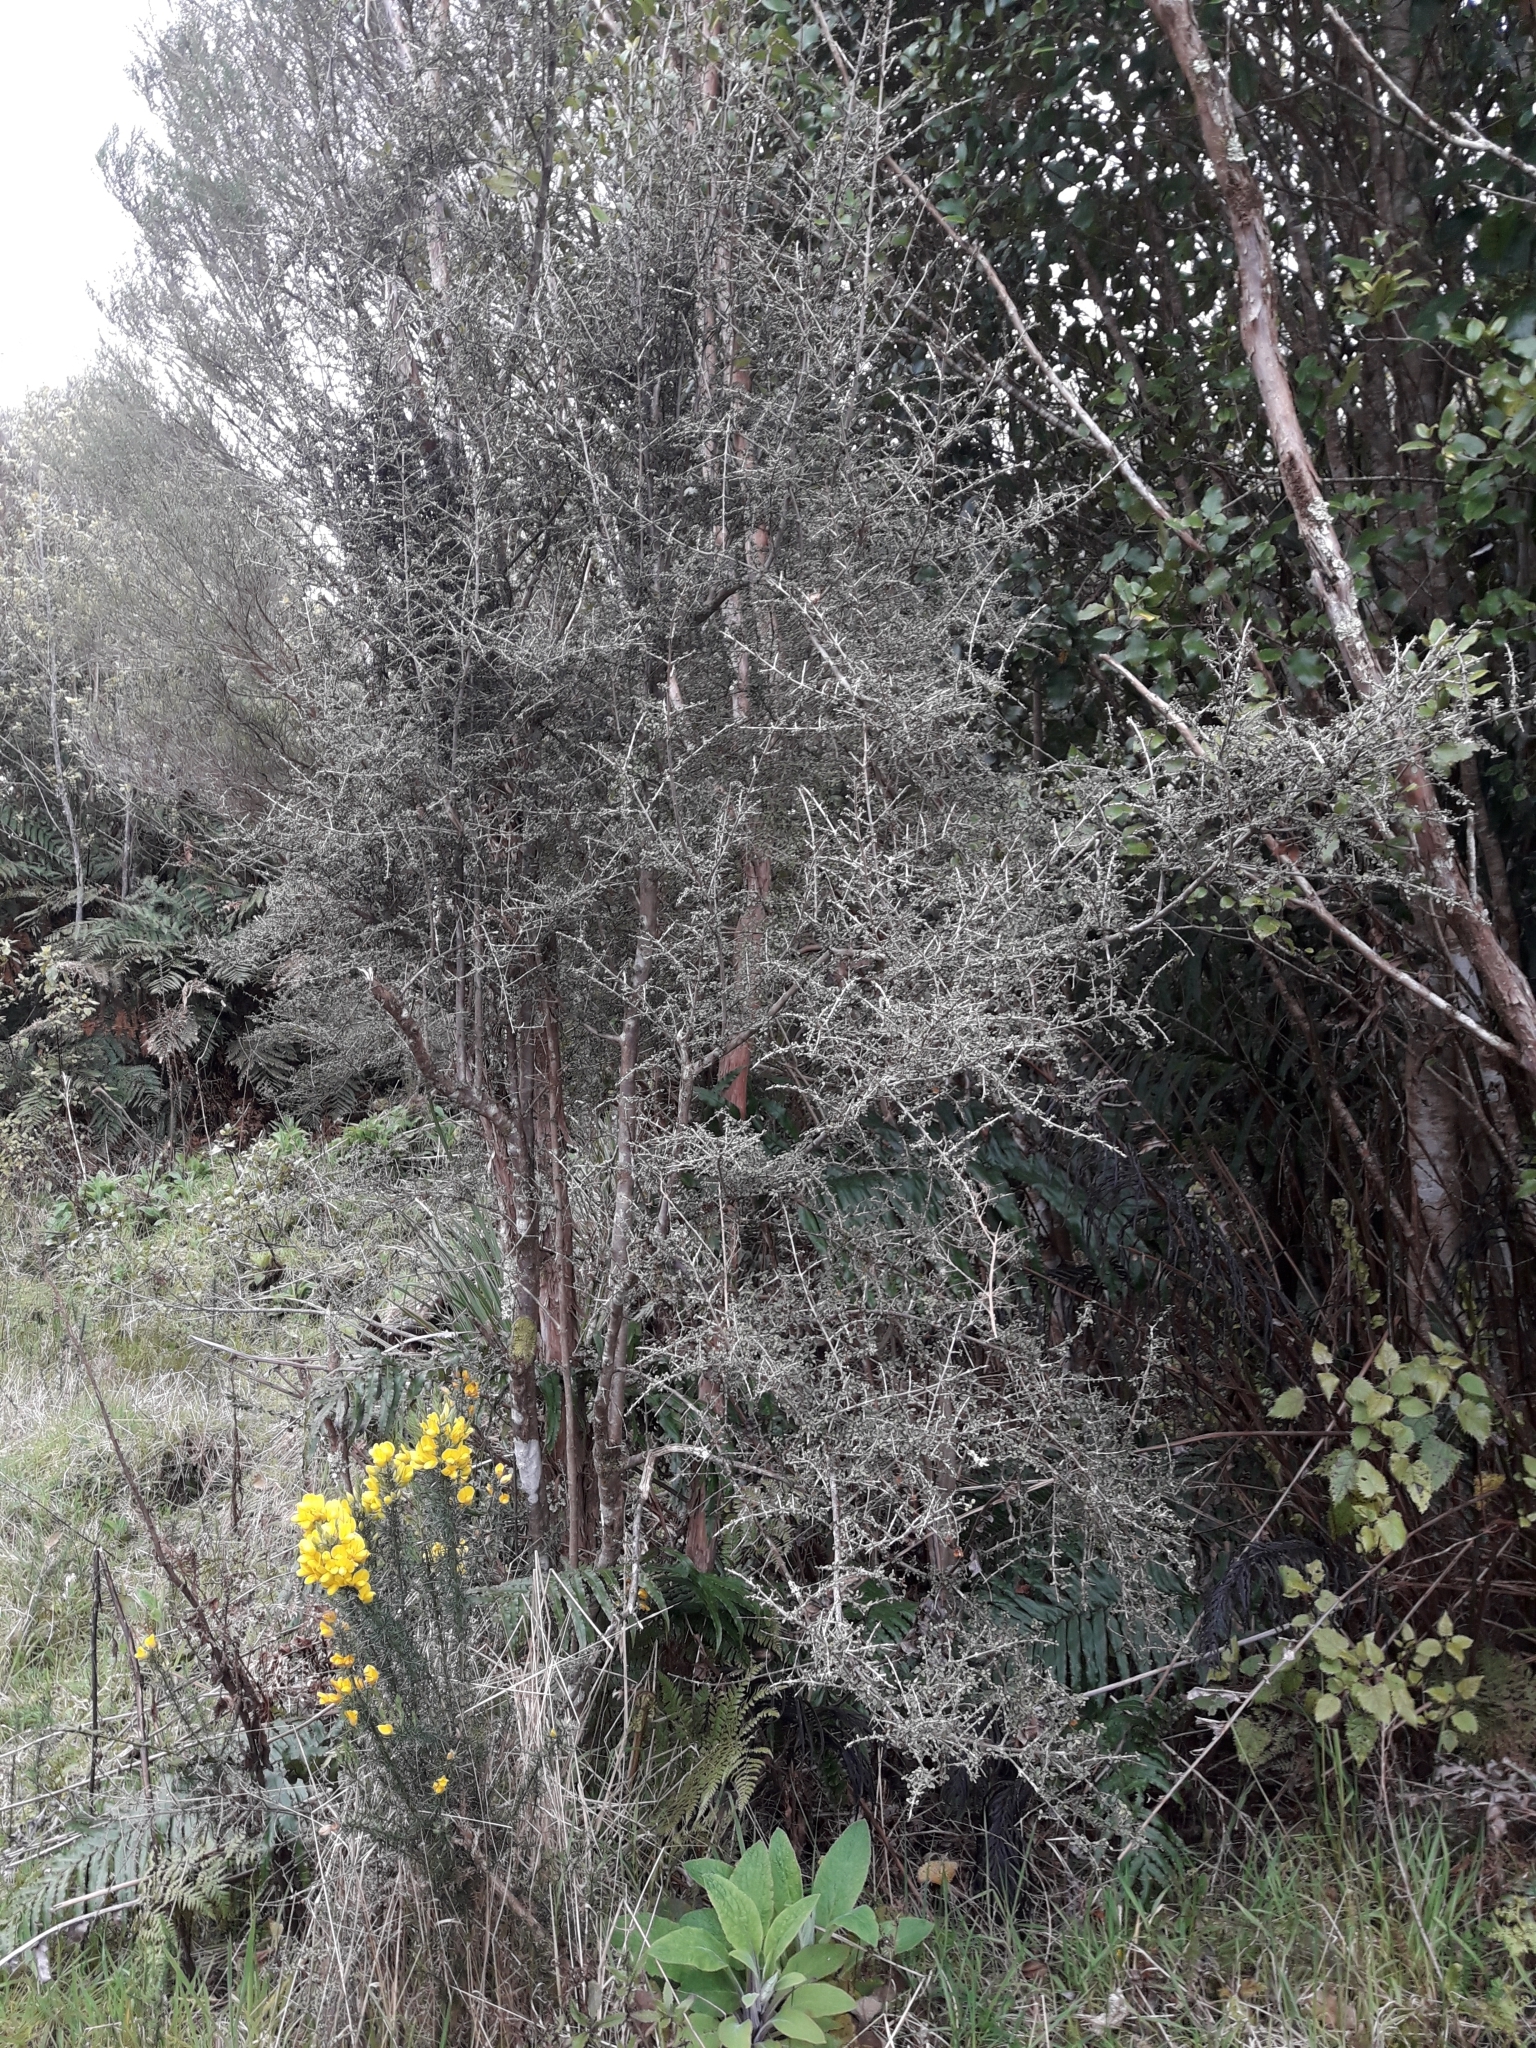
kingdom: Plantae
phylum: Tracheophyta
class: Magnoliopsida
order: Gentianales
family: Rubiaceae
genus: Coprosma
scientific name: Coprosma dumosa
